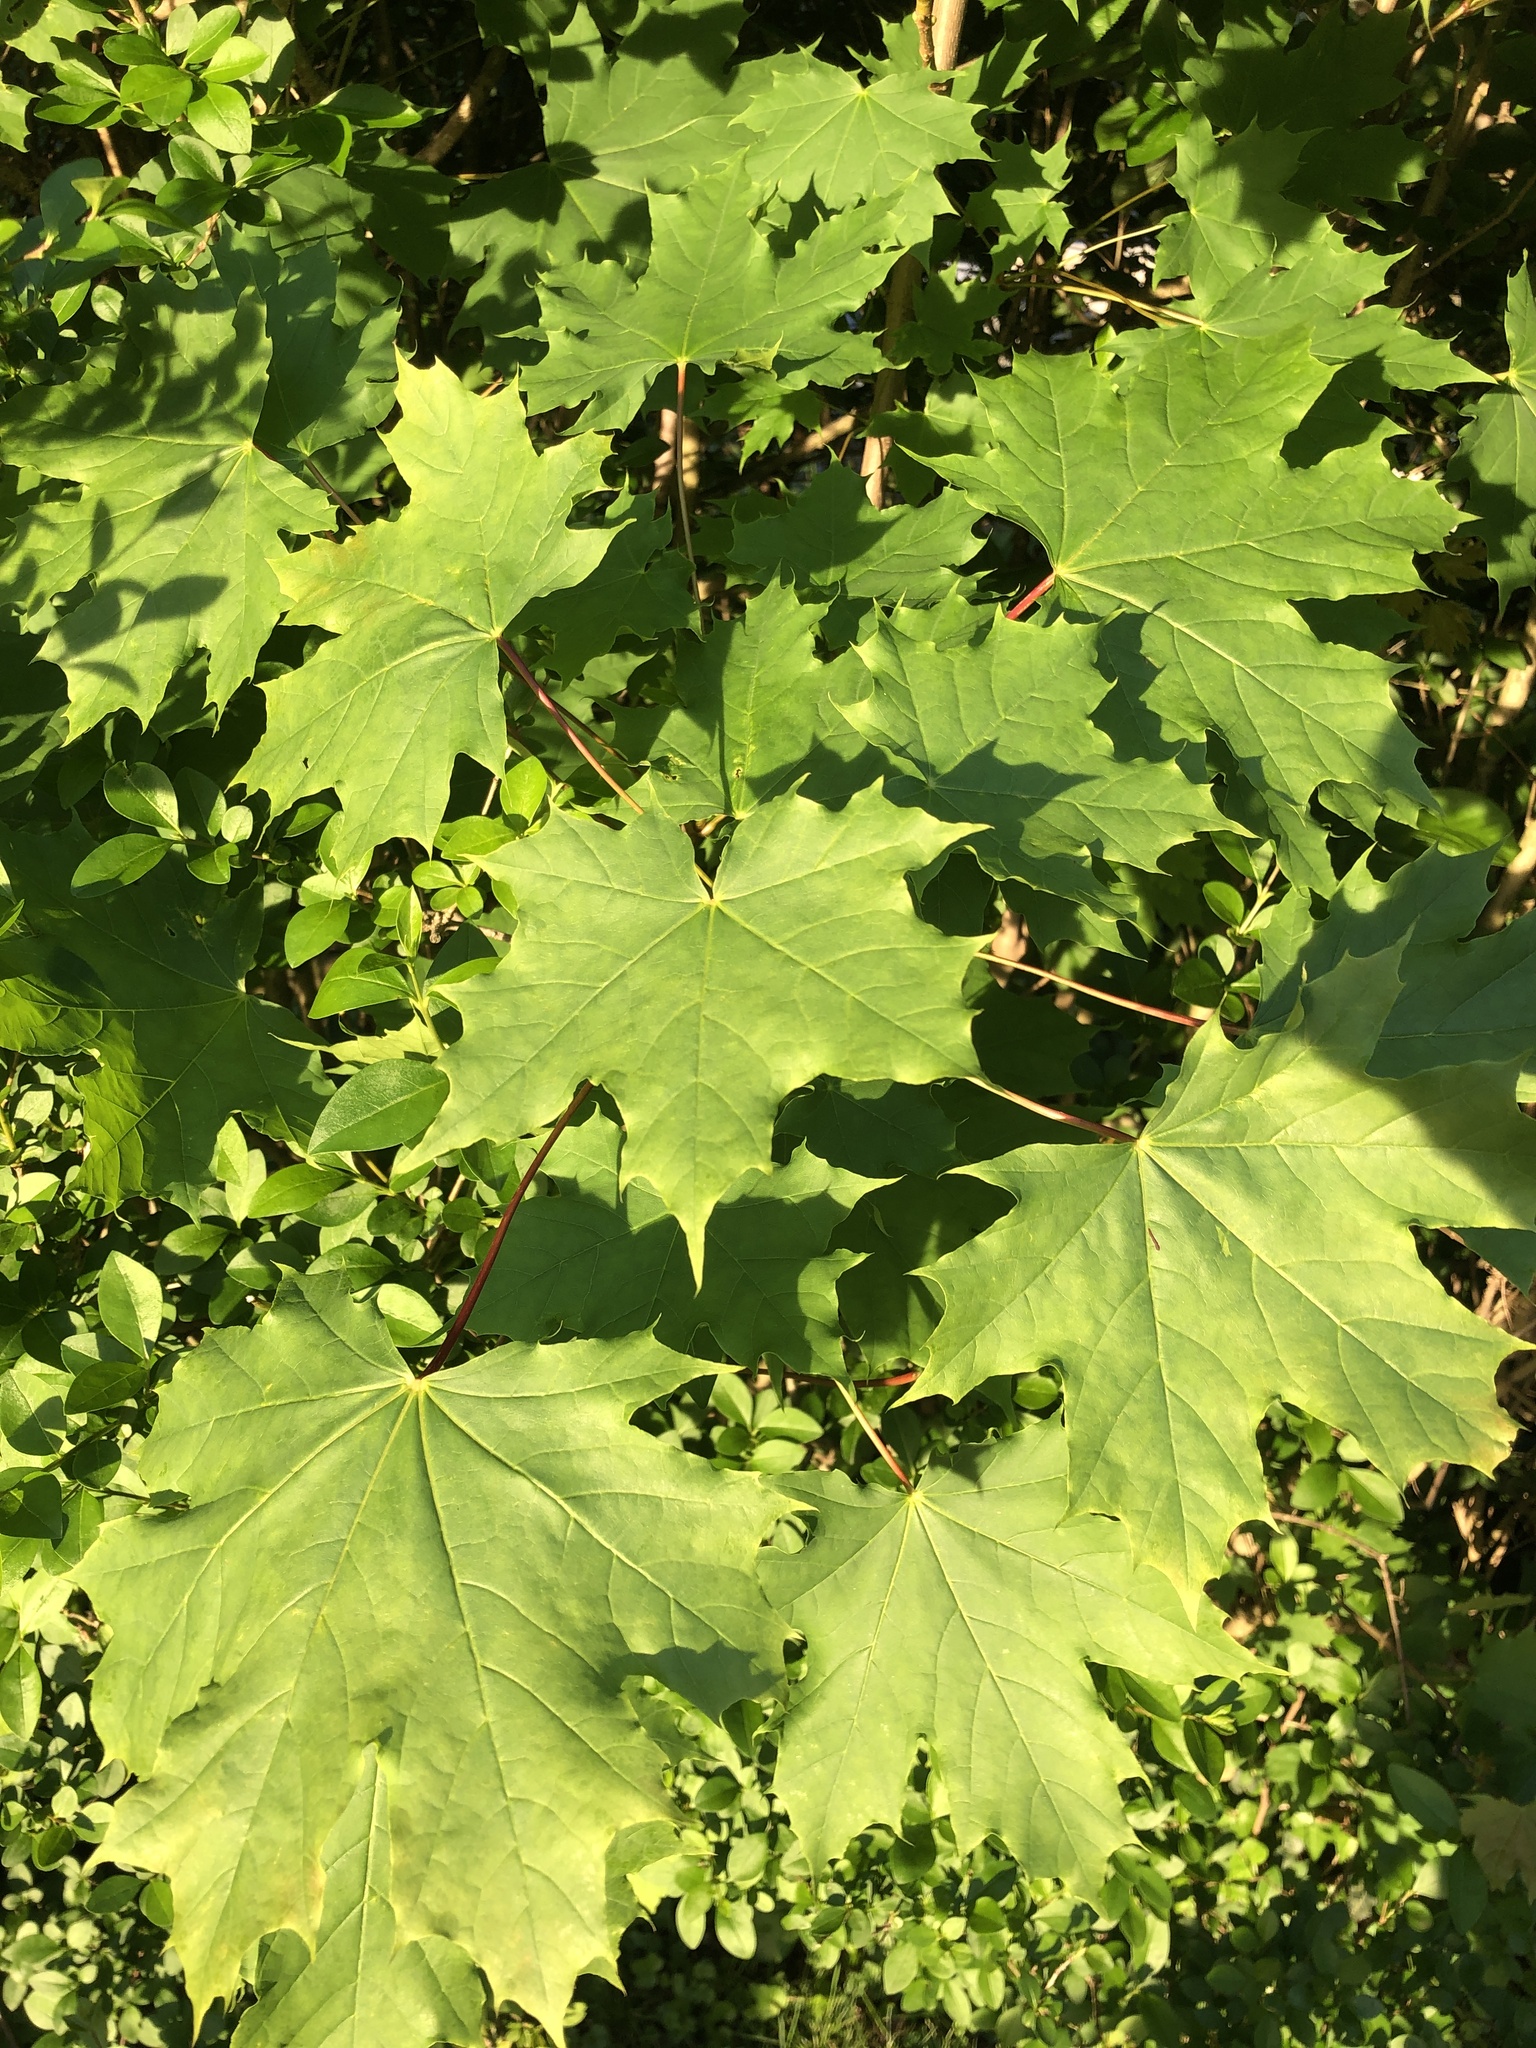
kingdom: Plantae
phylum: Tracheophyta
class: Magnoliopsida
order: Sapindales
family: Sapindaceae
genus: Acer
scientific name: Acer platanoides
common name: Norway maple
